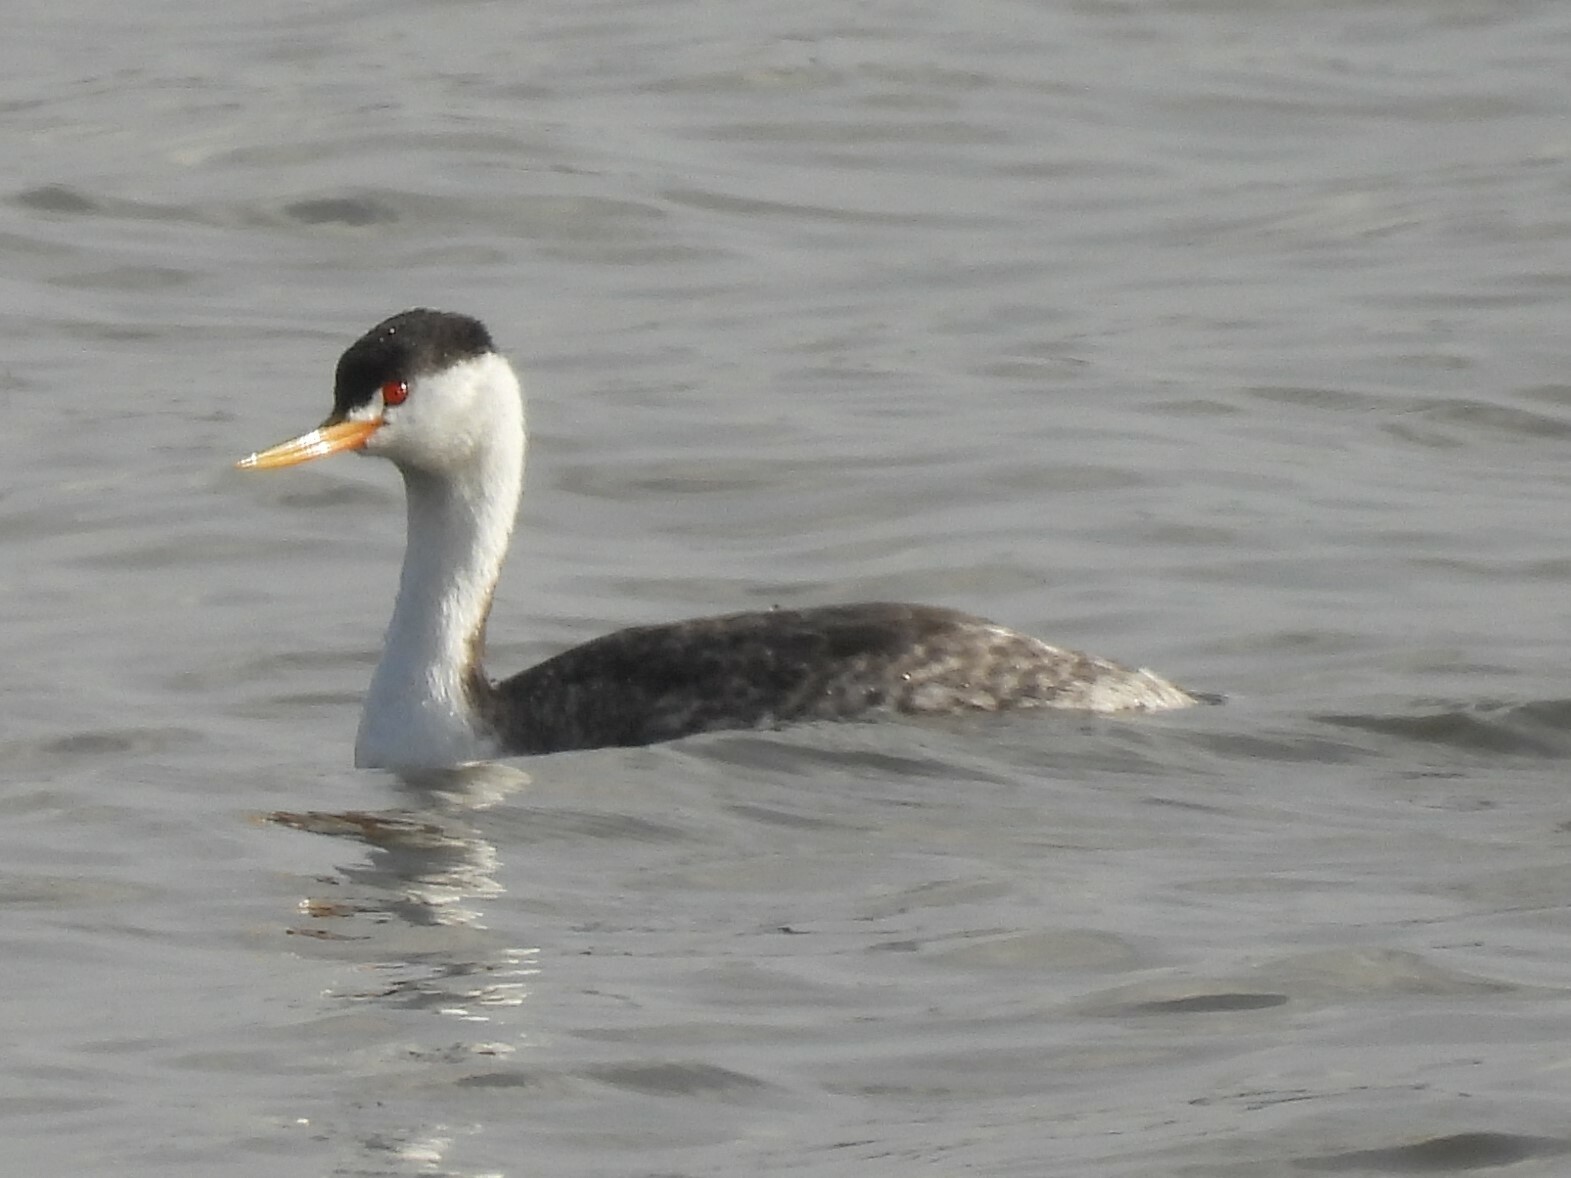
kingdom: Animalia
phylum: Chordata
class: Aves
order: Podicipediformes
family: Podicipedidae
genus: Aechmophorus
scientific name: Aechmophorus clarkii
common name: Clark's grebe
